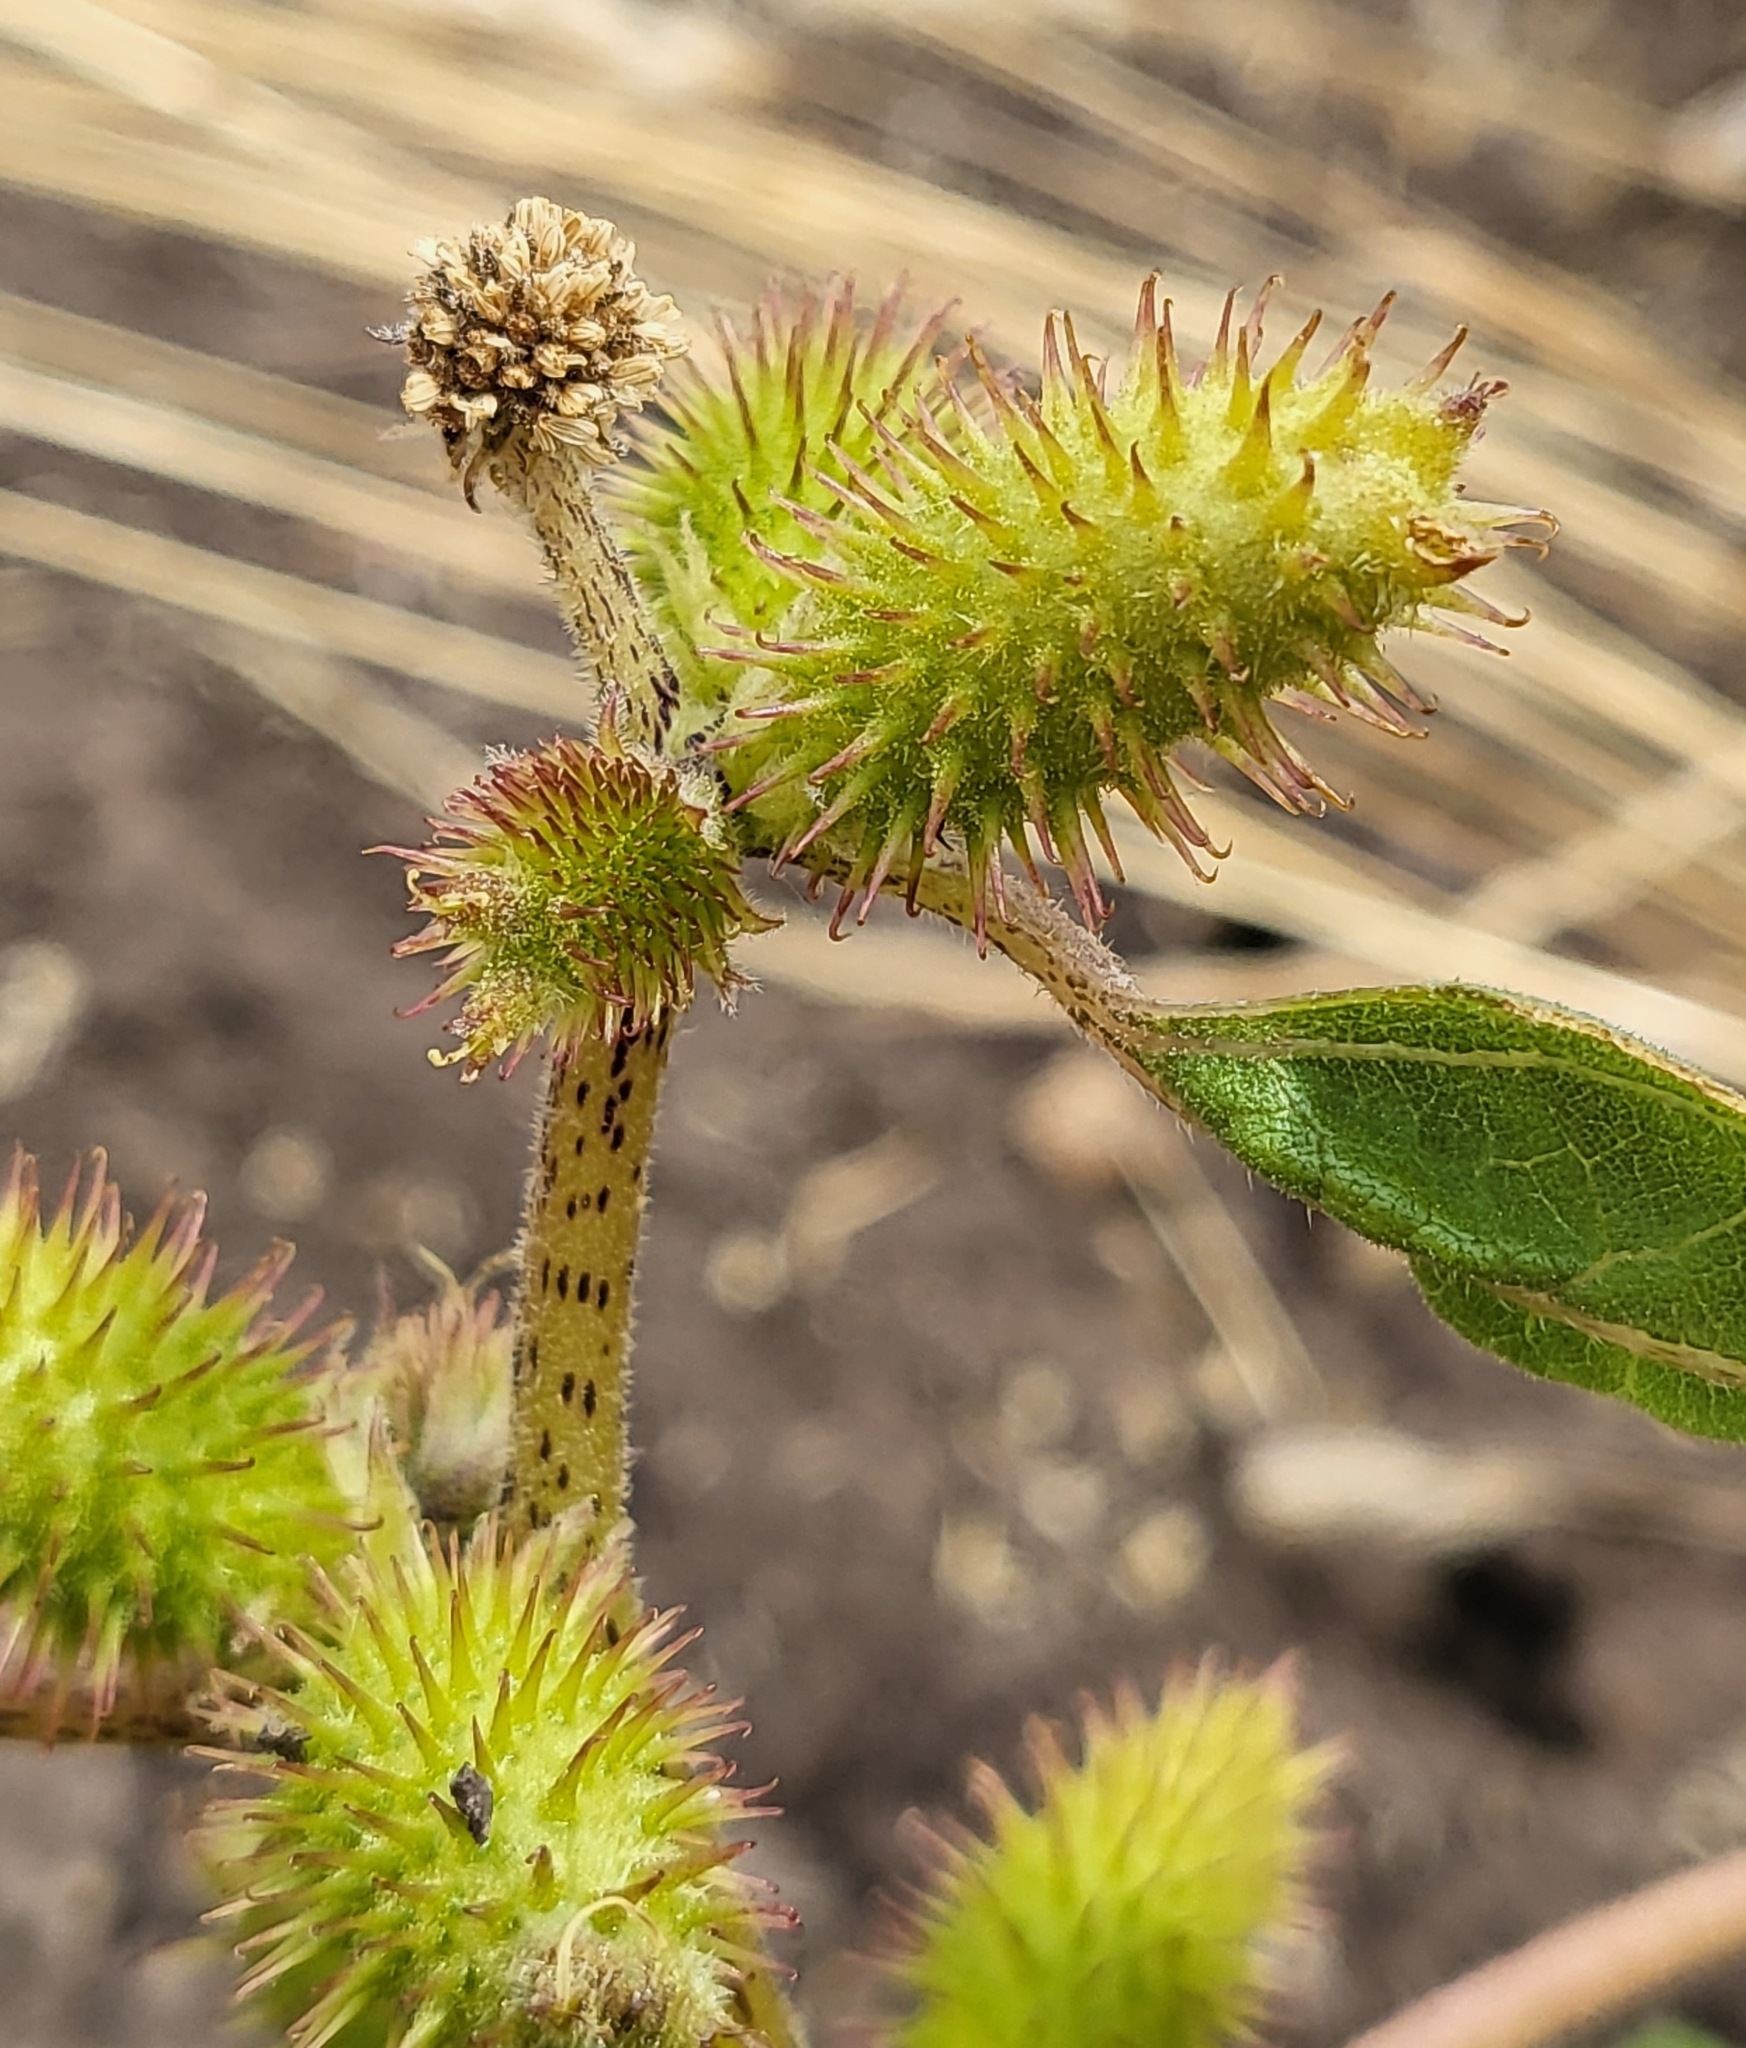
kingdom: Plantae
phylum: Tracheophyta
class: Magnoliopsida
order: Asterales
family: Asteraceae
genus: Xanthium
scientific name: Xanthium strumarium
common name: Rough cocklebur
